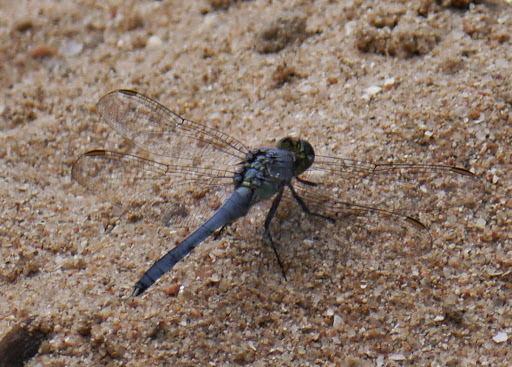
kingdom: Animalia
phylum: Arthropoda
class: Insecta
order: Odonata
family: Libellulidae
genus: Erythemis
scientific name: Erythemis simplicicollis
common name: Eastern pondhawk
